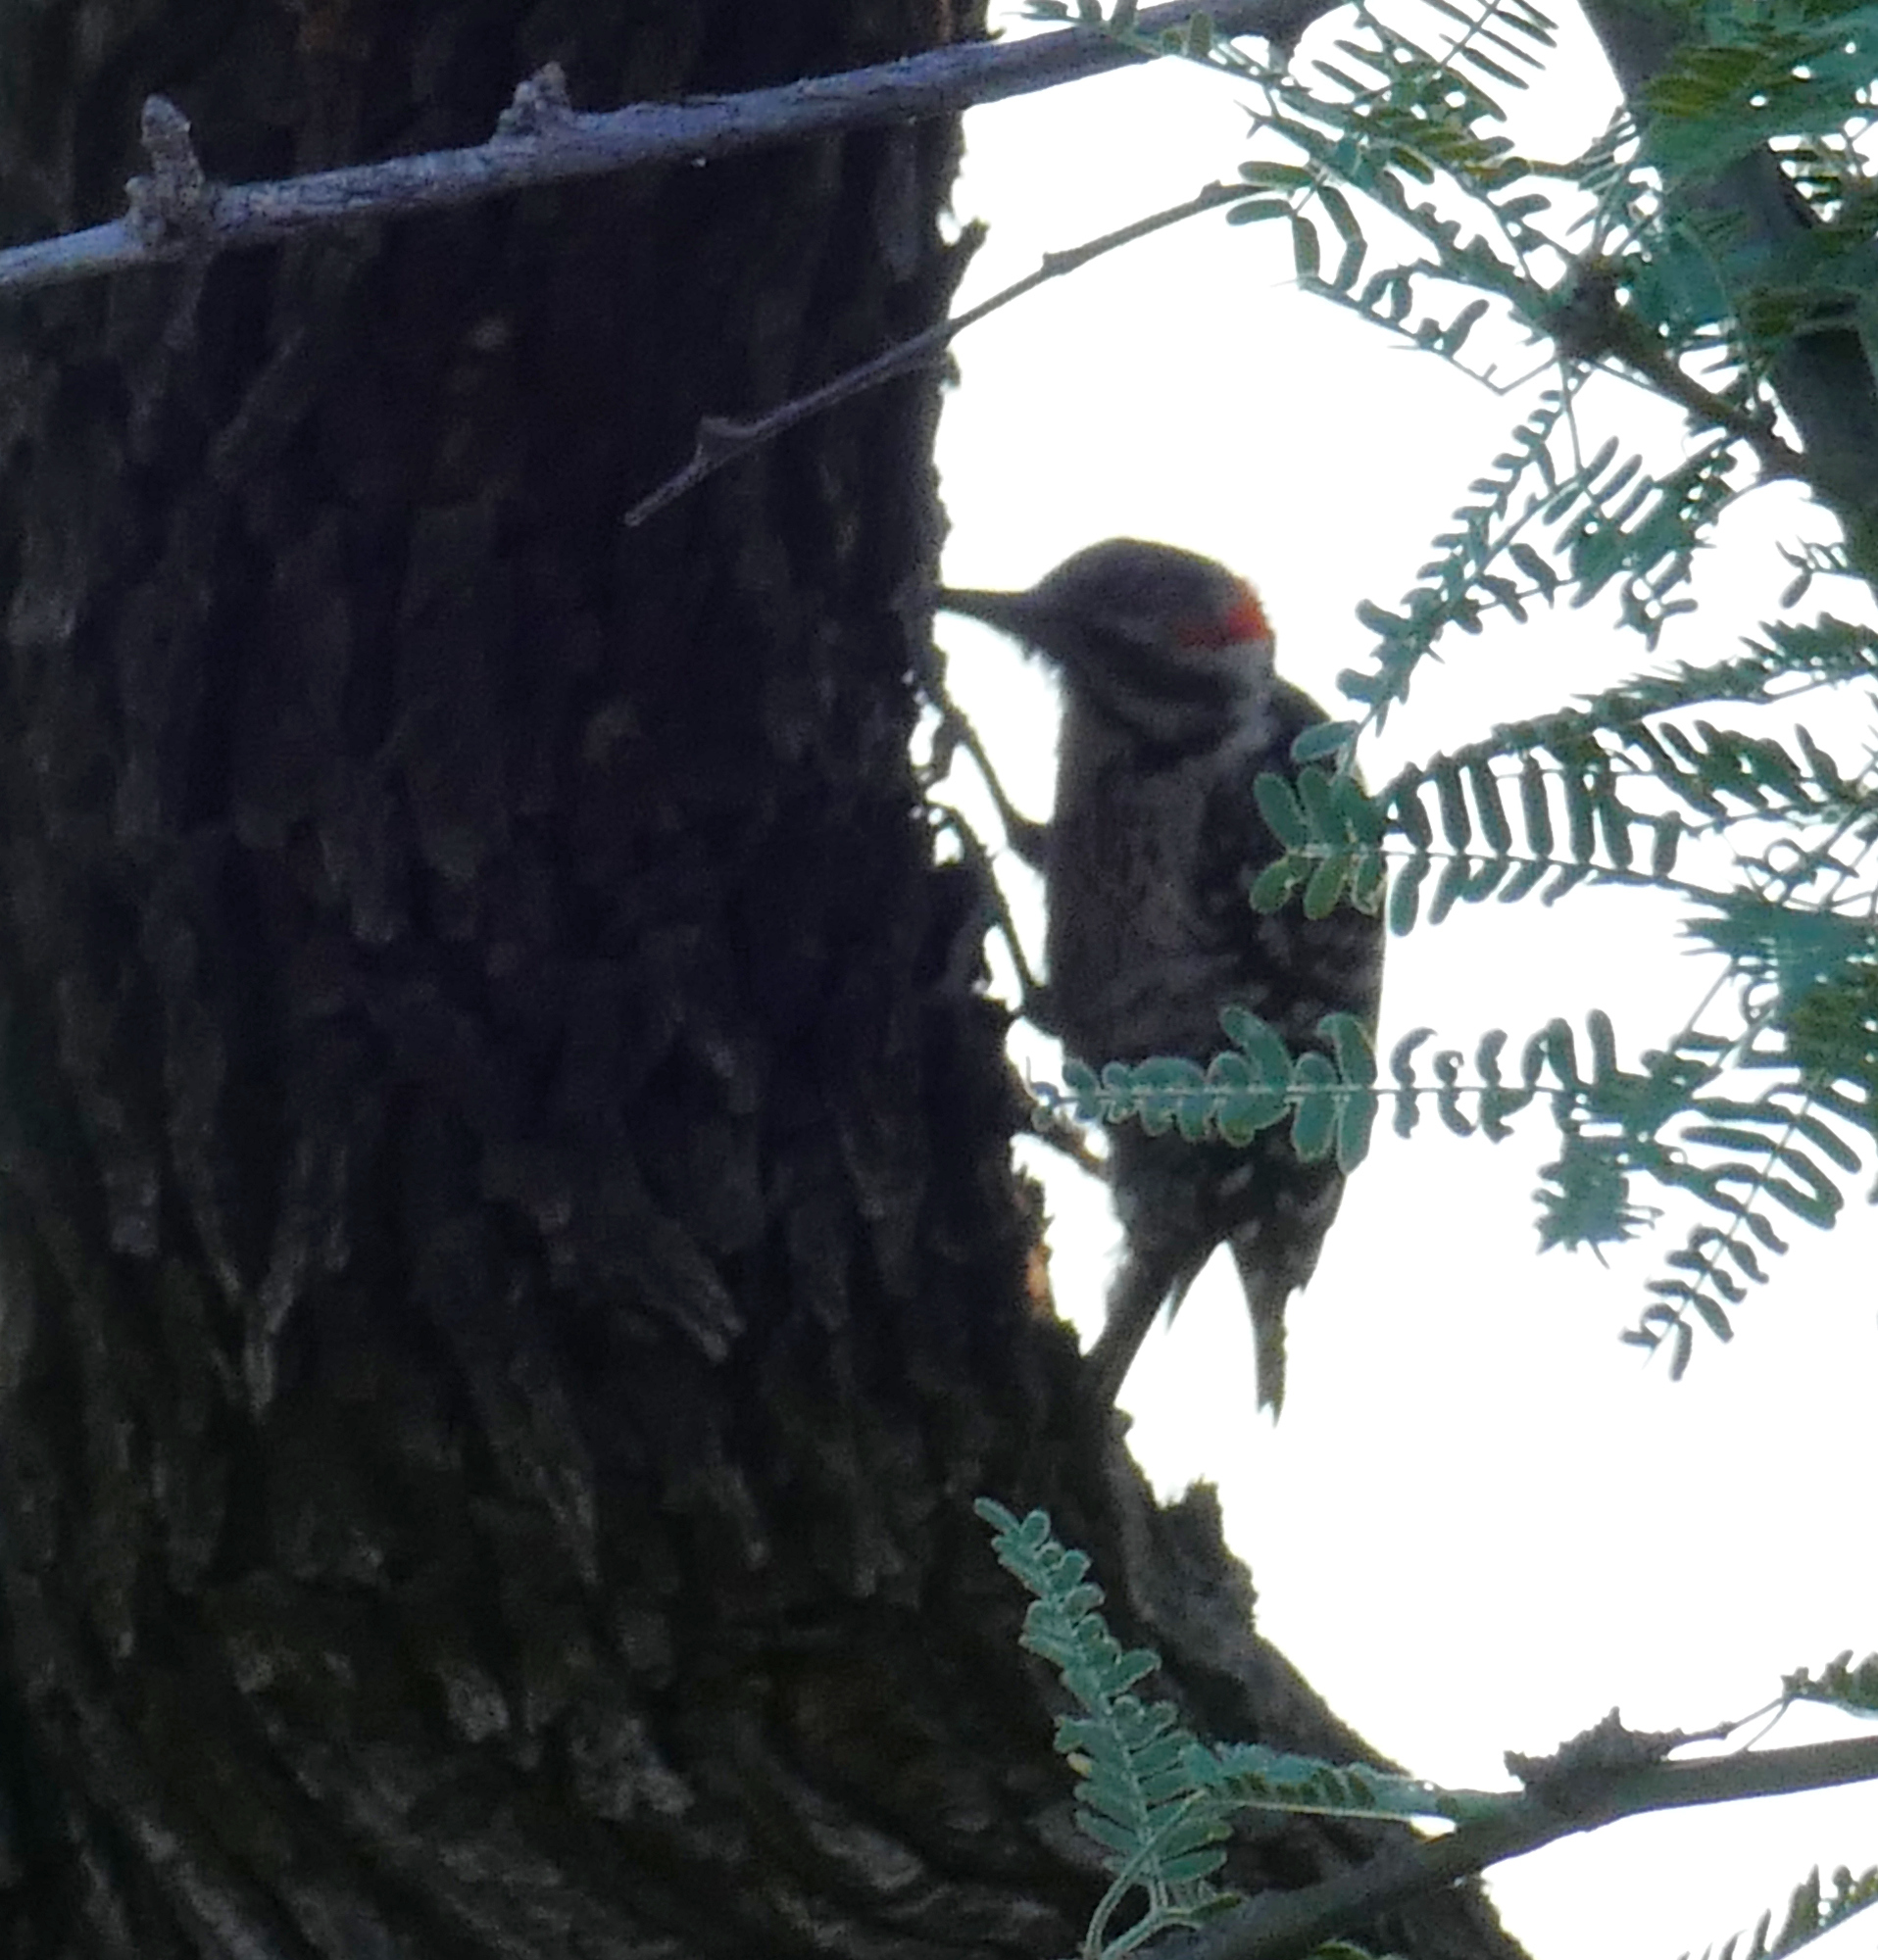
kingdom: Animalia
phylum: Chordata
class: Aves
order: Piciformes
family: Picidae
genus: Dryobates
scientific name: Dryobates scalaris
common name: Ladder-backed woodpecker
